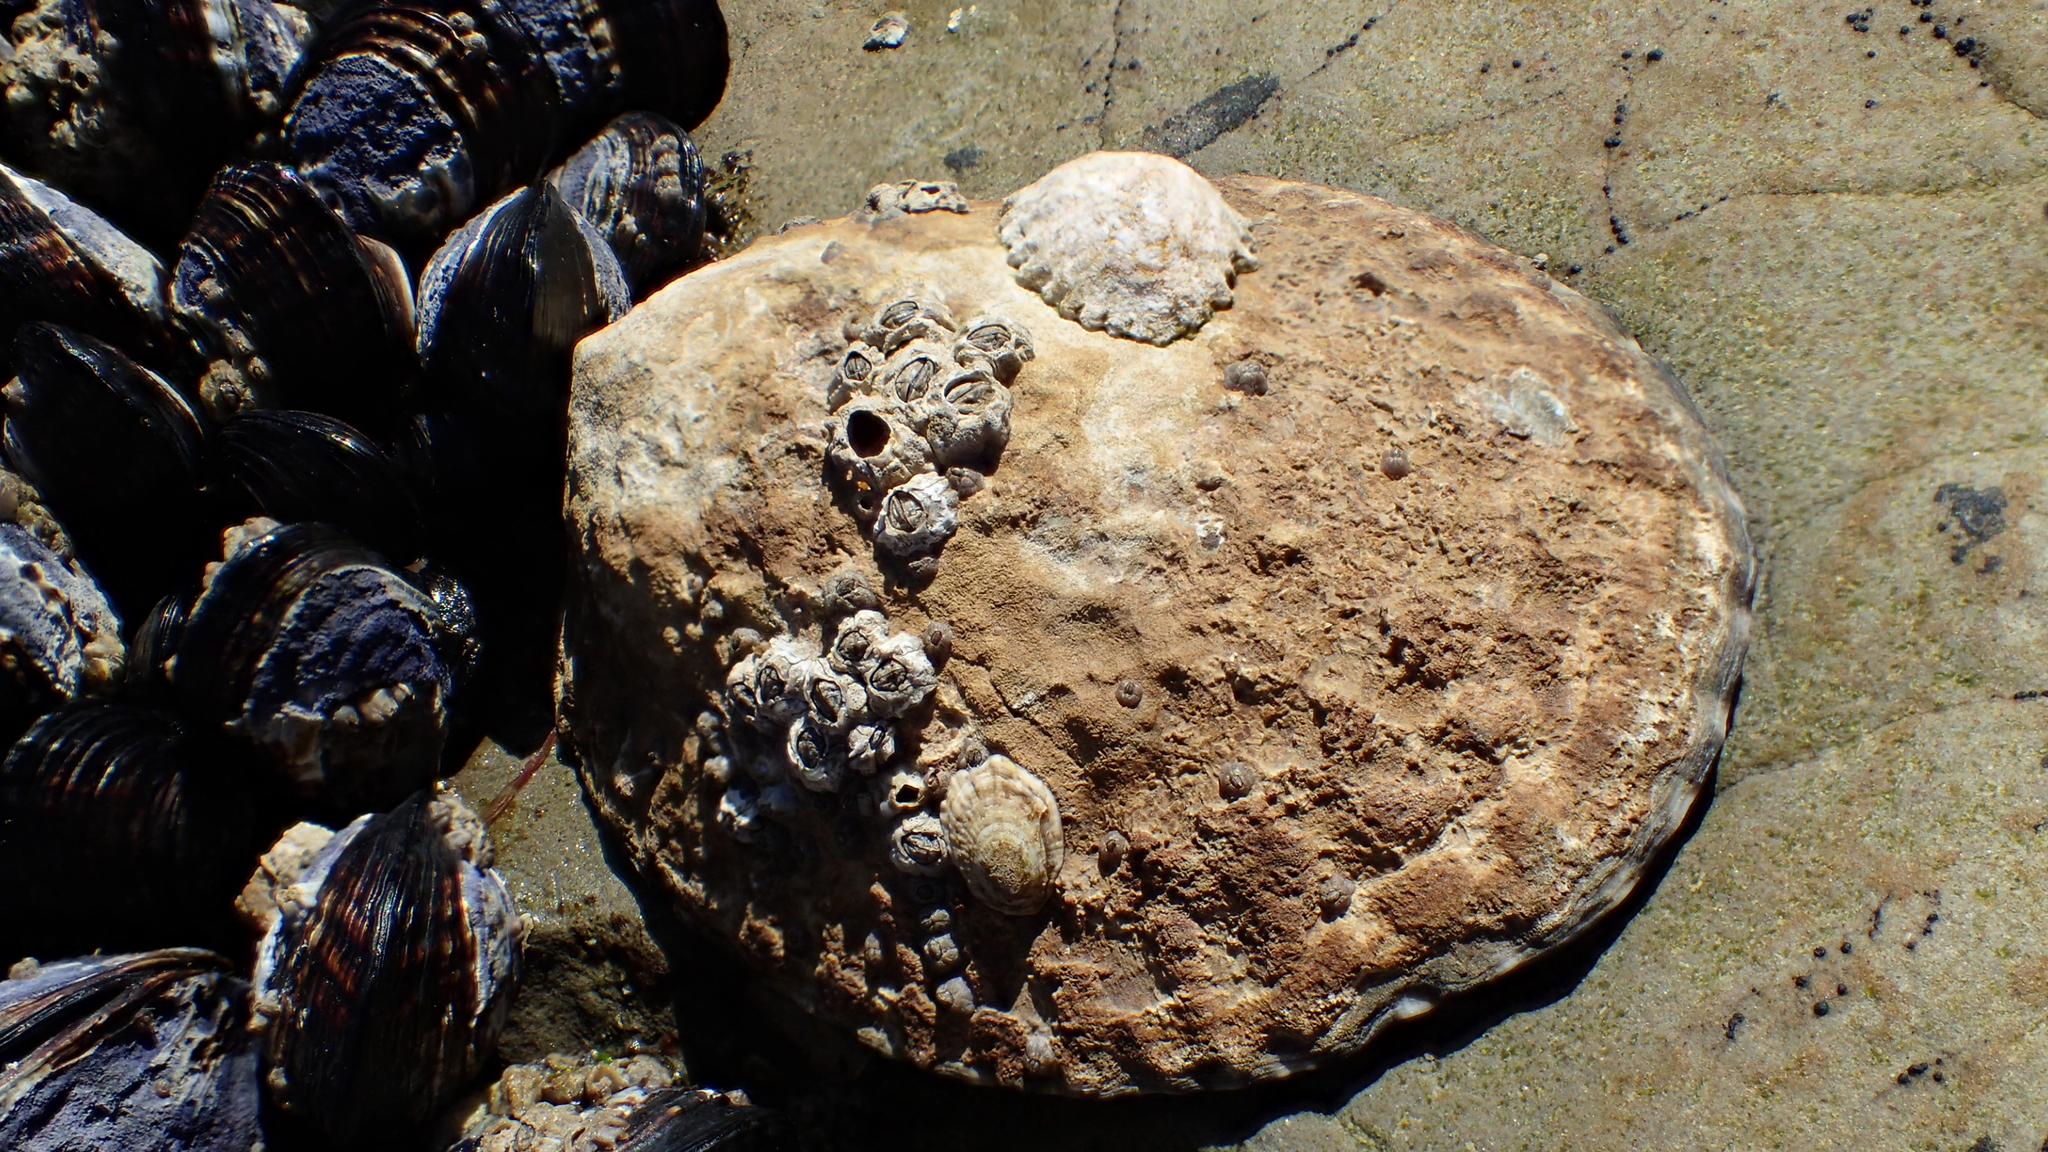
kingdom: Animalia
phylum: Mollusca
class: Gastropoda
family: Lottiidae
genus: Lottia
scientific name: Lottia gigantea
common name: Owl limpet
